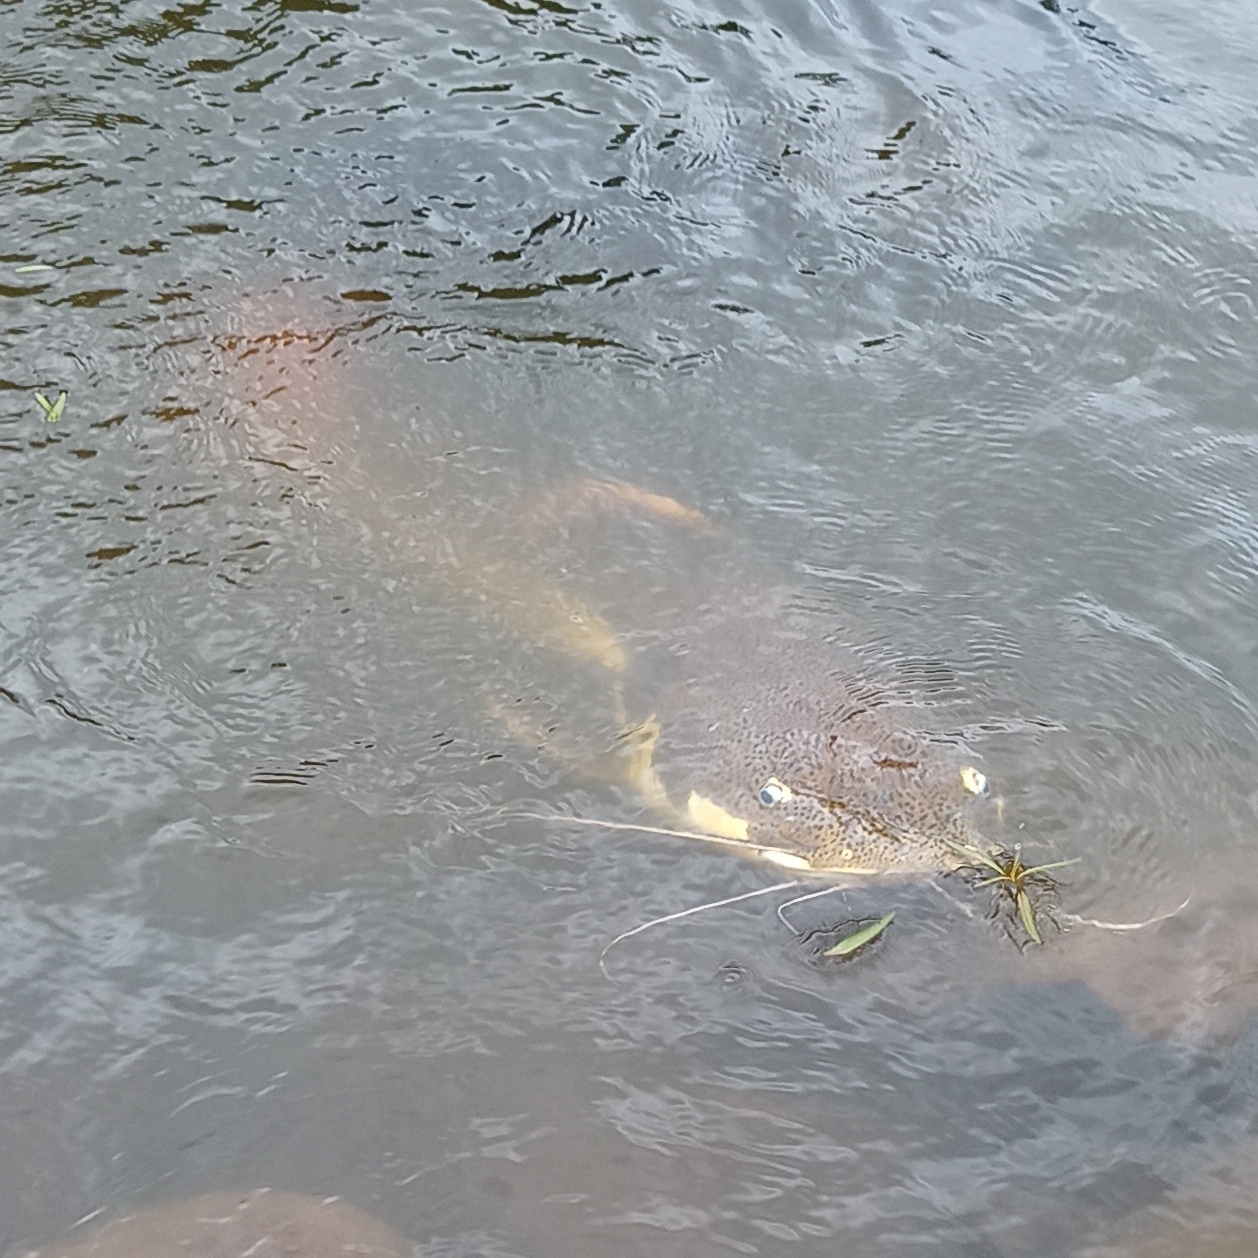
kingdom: Animalia
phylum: Chordata
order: Siluriformes
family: Pimelodidae
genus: Phractocephalus
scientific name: Phractocephalus hemioliopterus
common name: Redtail catfish
